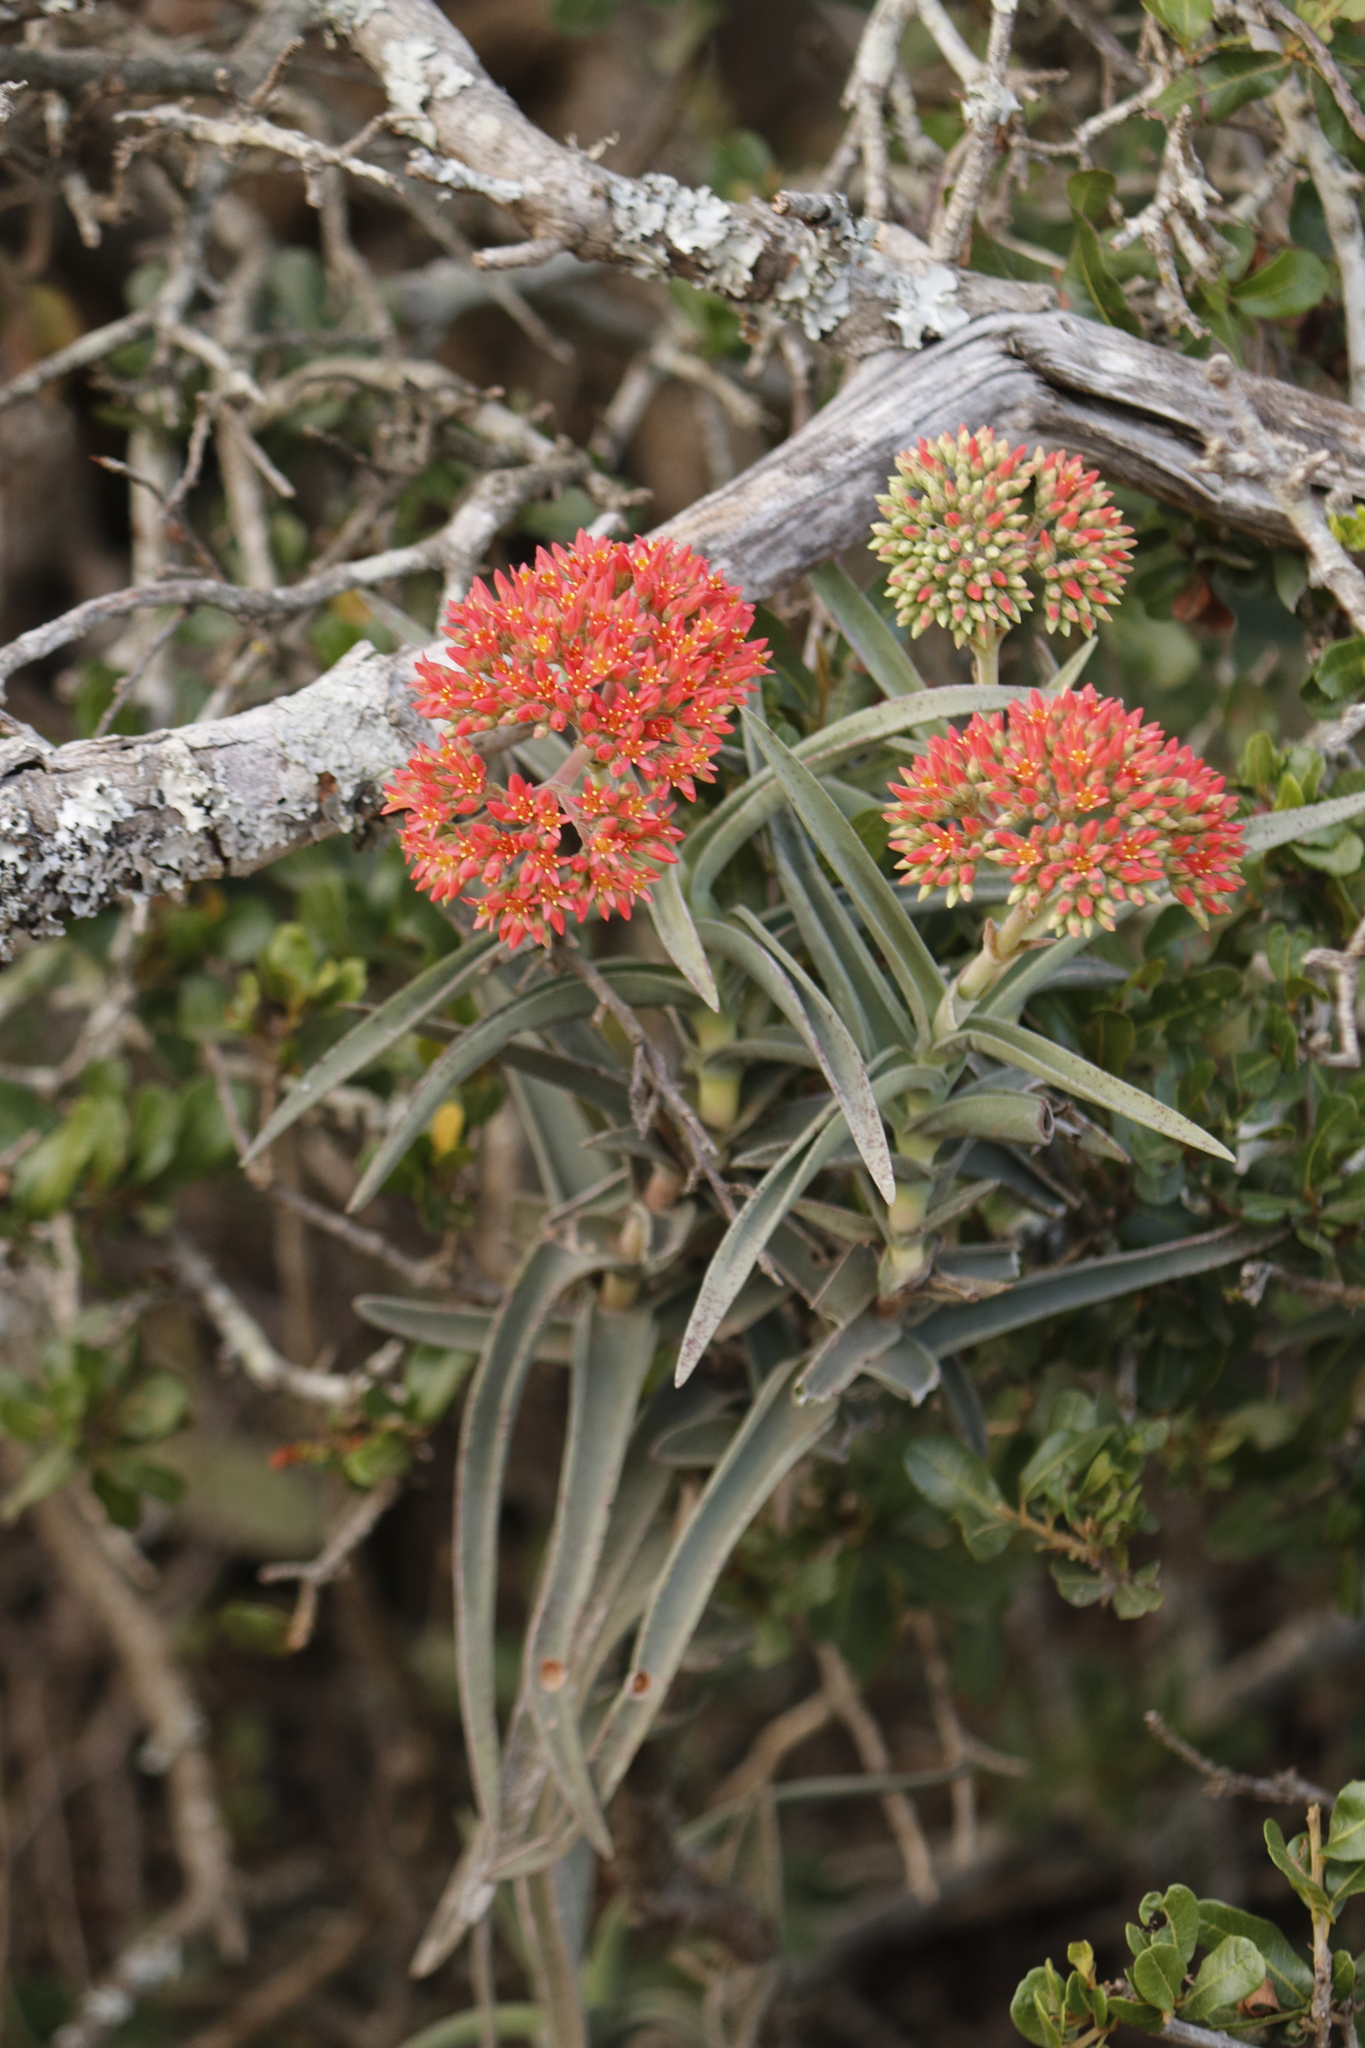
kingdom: Plantae
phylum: Tracheophyta
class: Magnoliopsida
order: Saxifragales
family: Crassulaceae
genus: Crassula
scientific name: Crassula perfoliata
